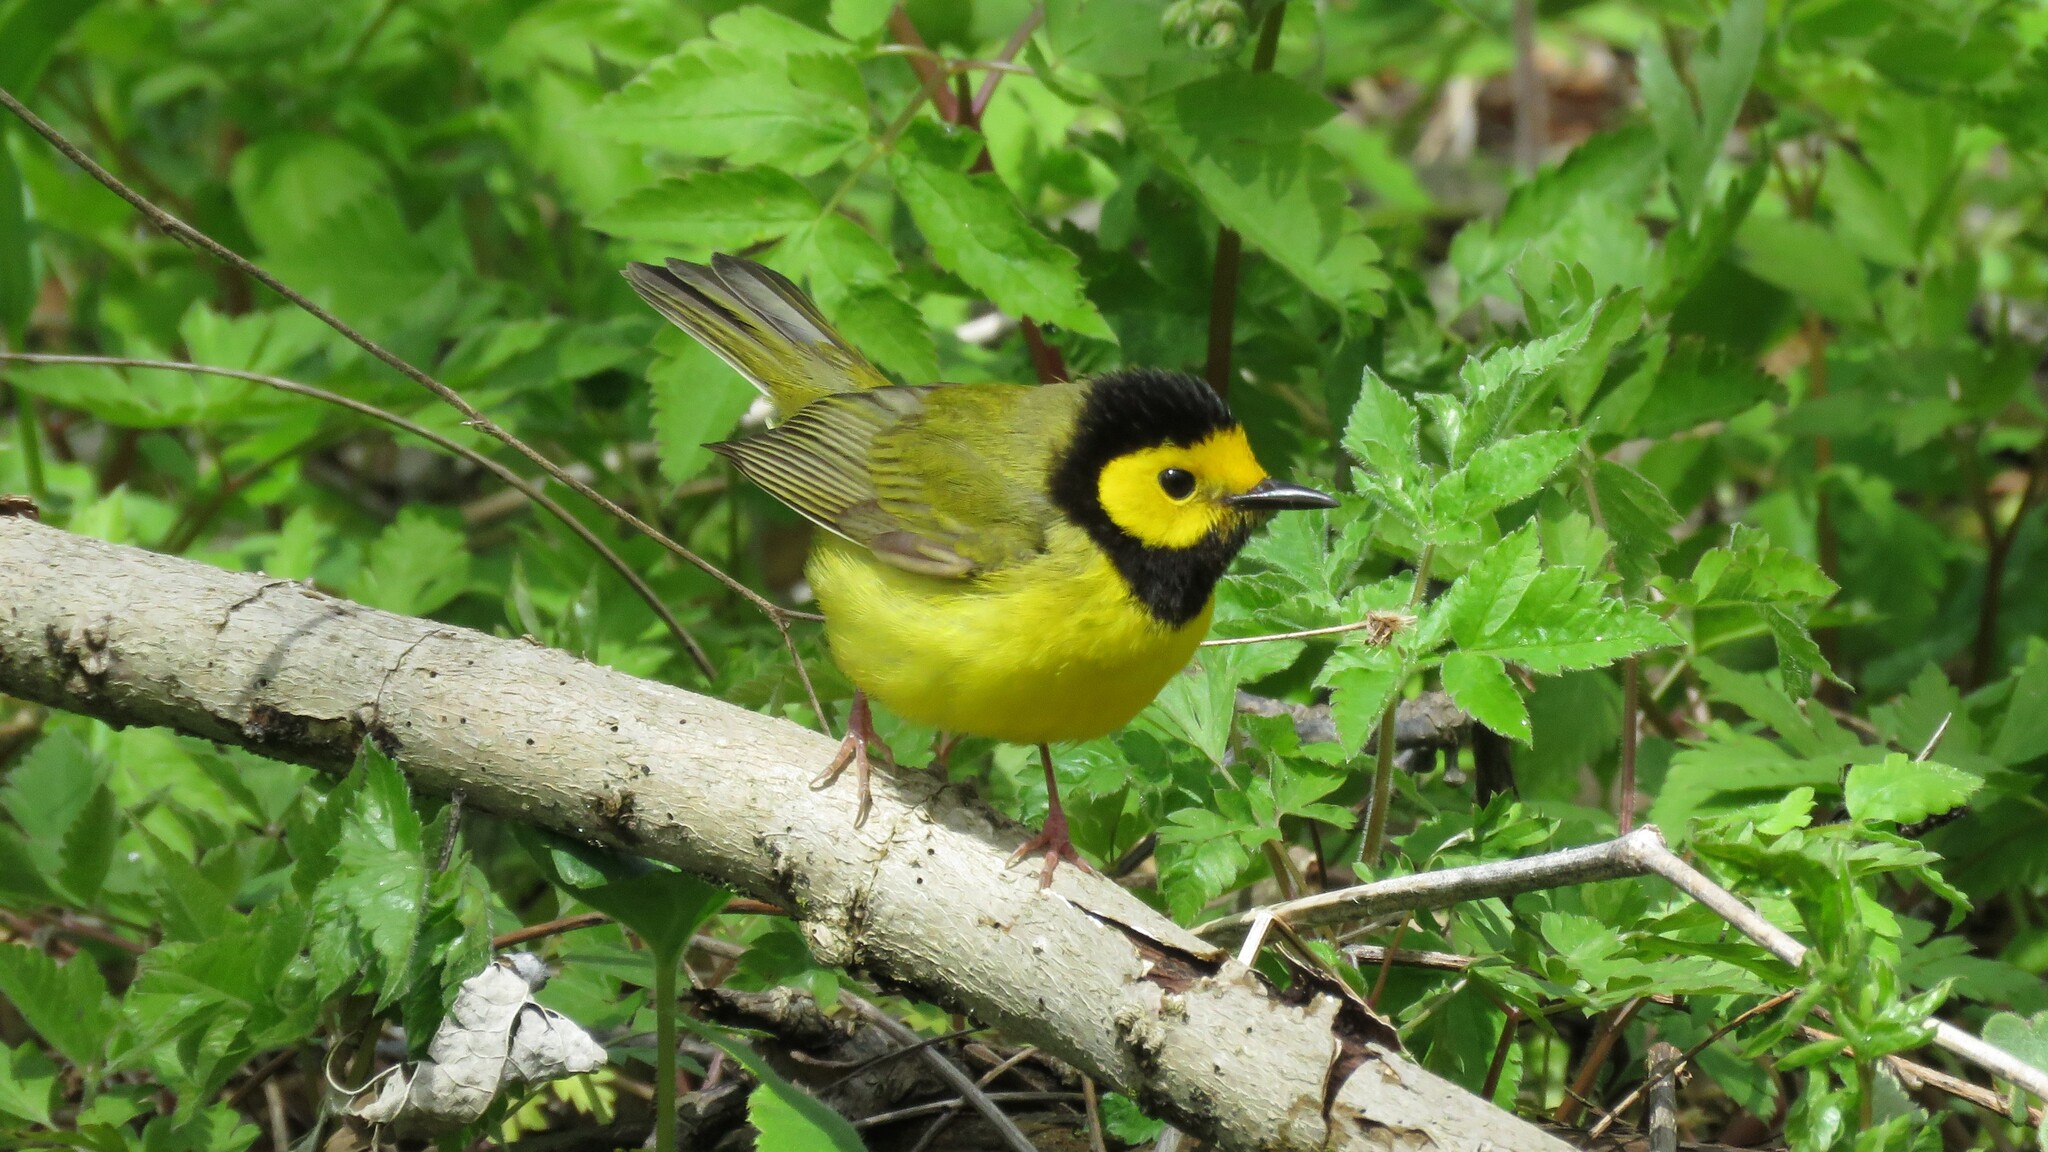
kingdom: Animalia
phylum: Chordata
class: Aves
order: Passeriformes
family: Parulidae
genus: Setophaga
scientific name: Setophaga citrina
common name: Hooded warbler
